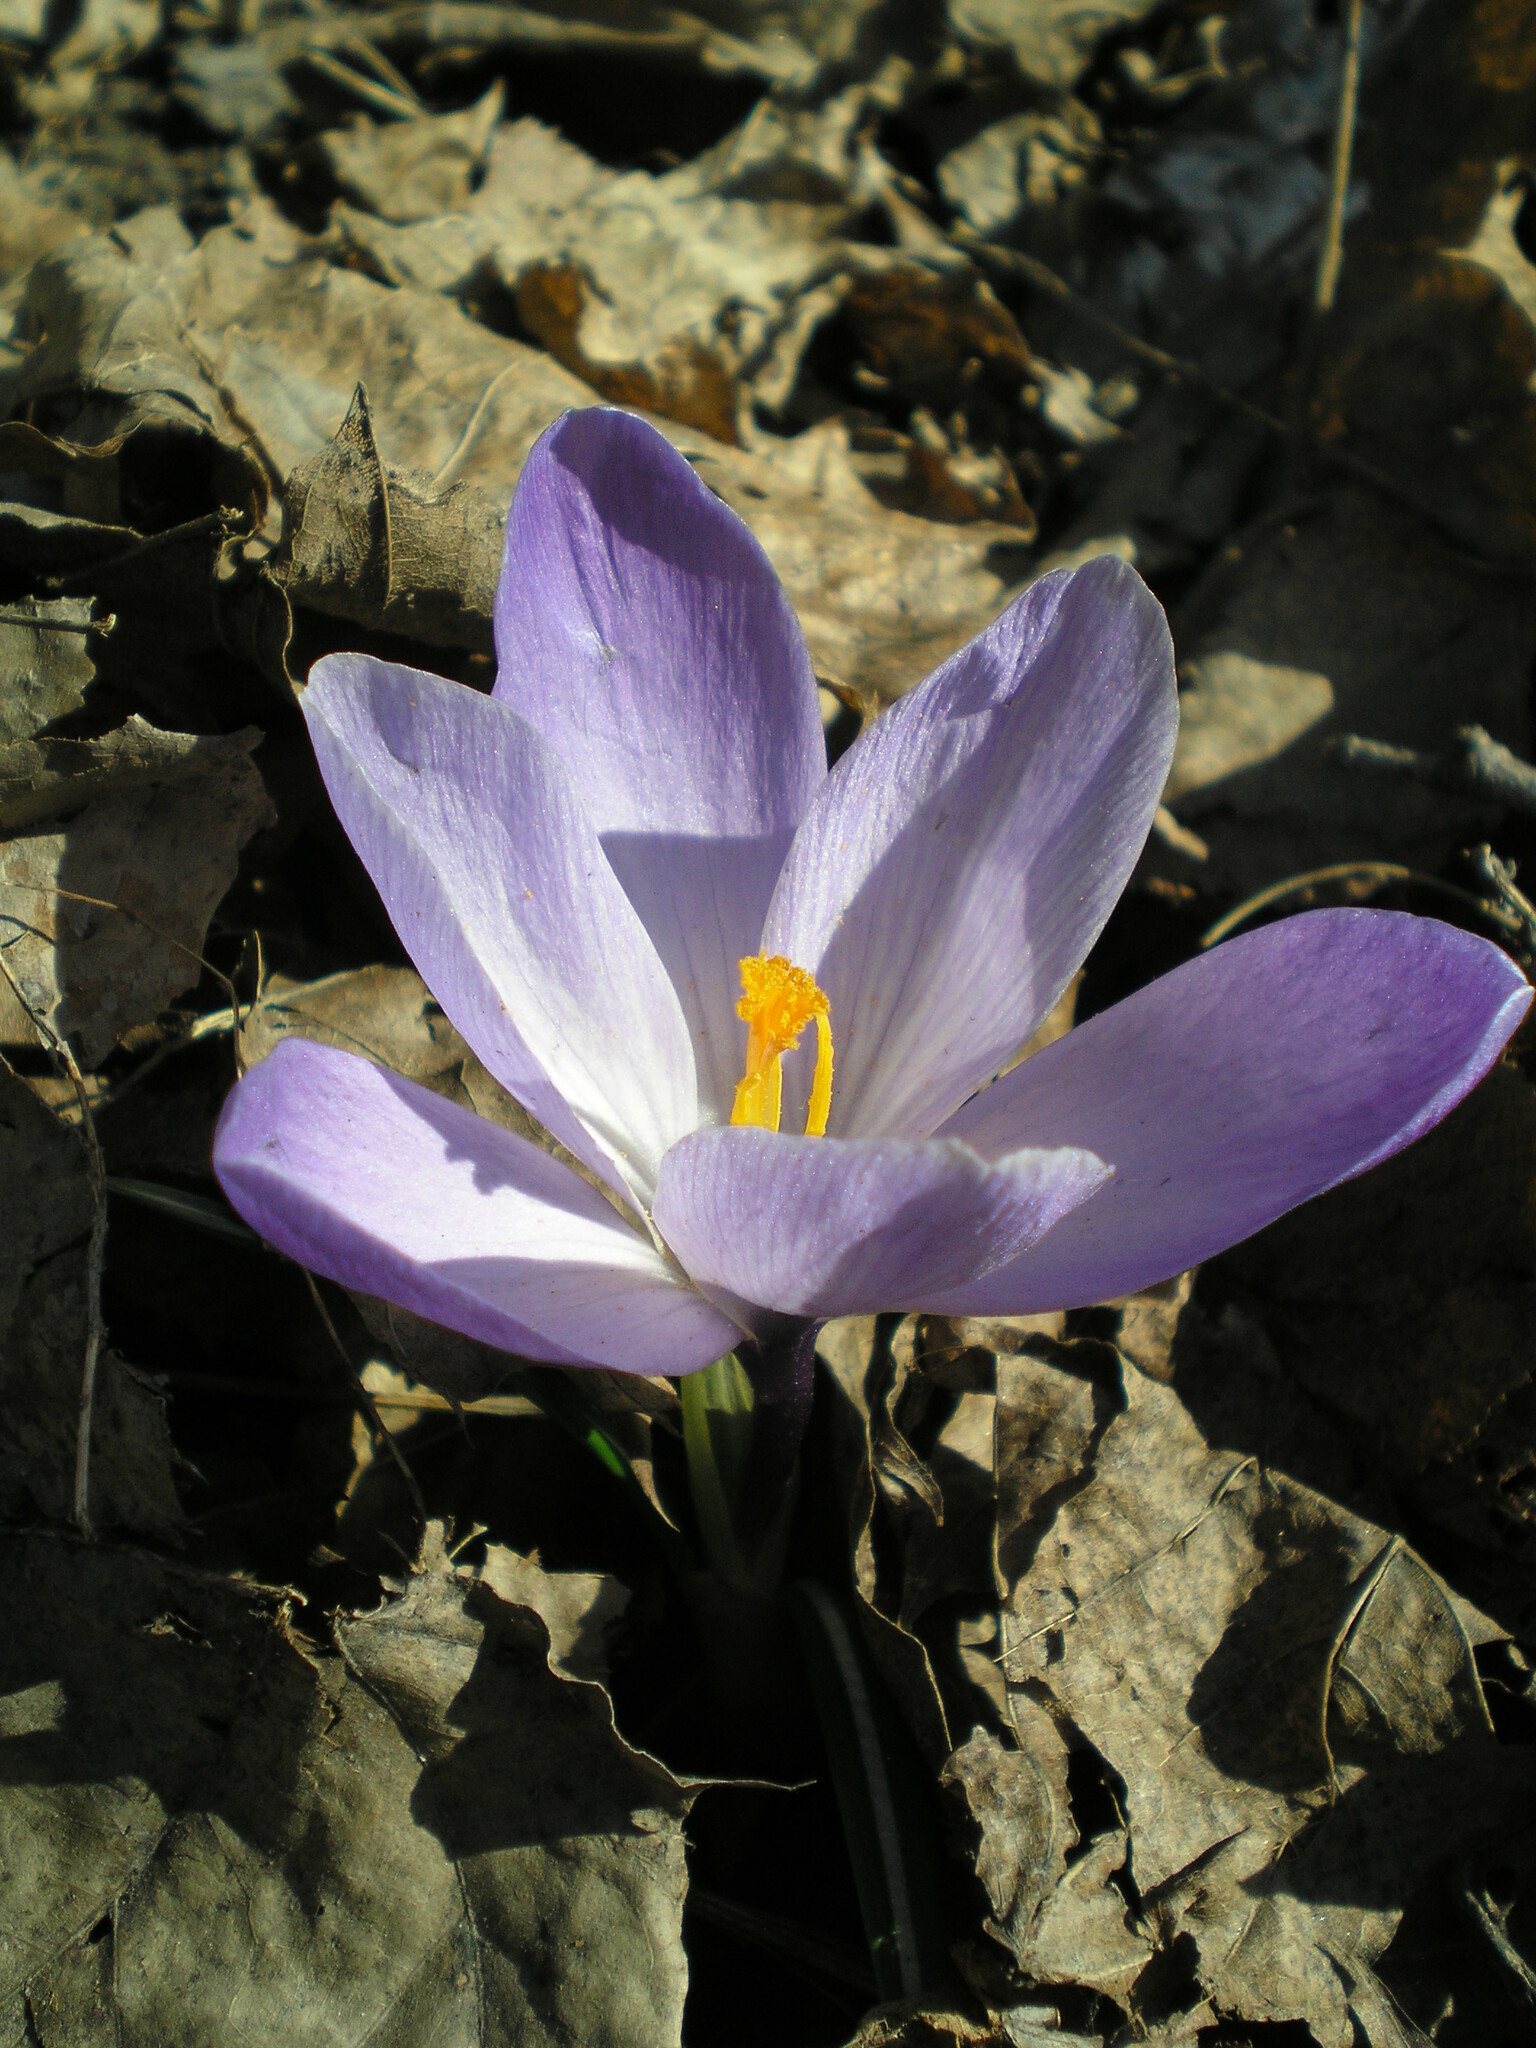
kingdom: Plantae
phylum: Tracheophyta
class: Liliopsida
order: Asparagales
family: Iridaceae
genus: Crocus
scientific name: Crocus vernus
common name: Spring crocus
